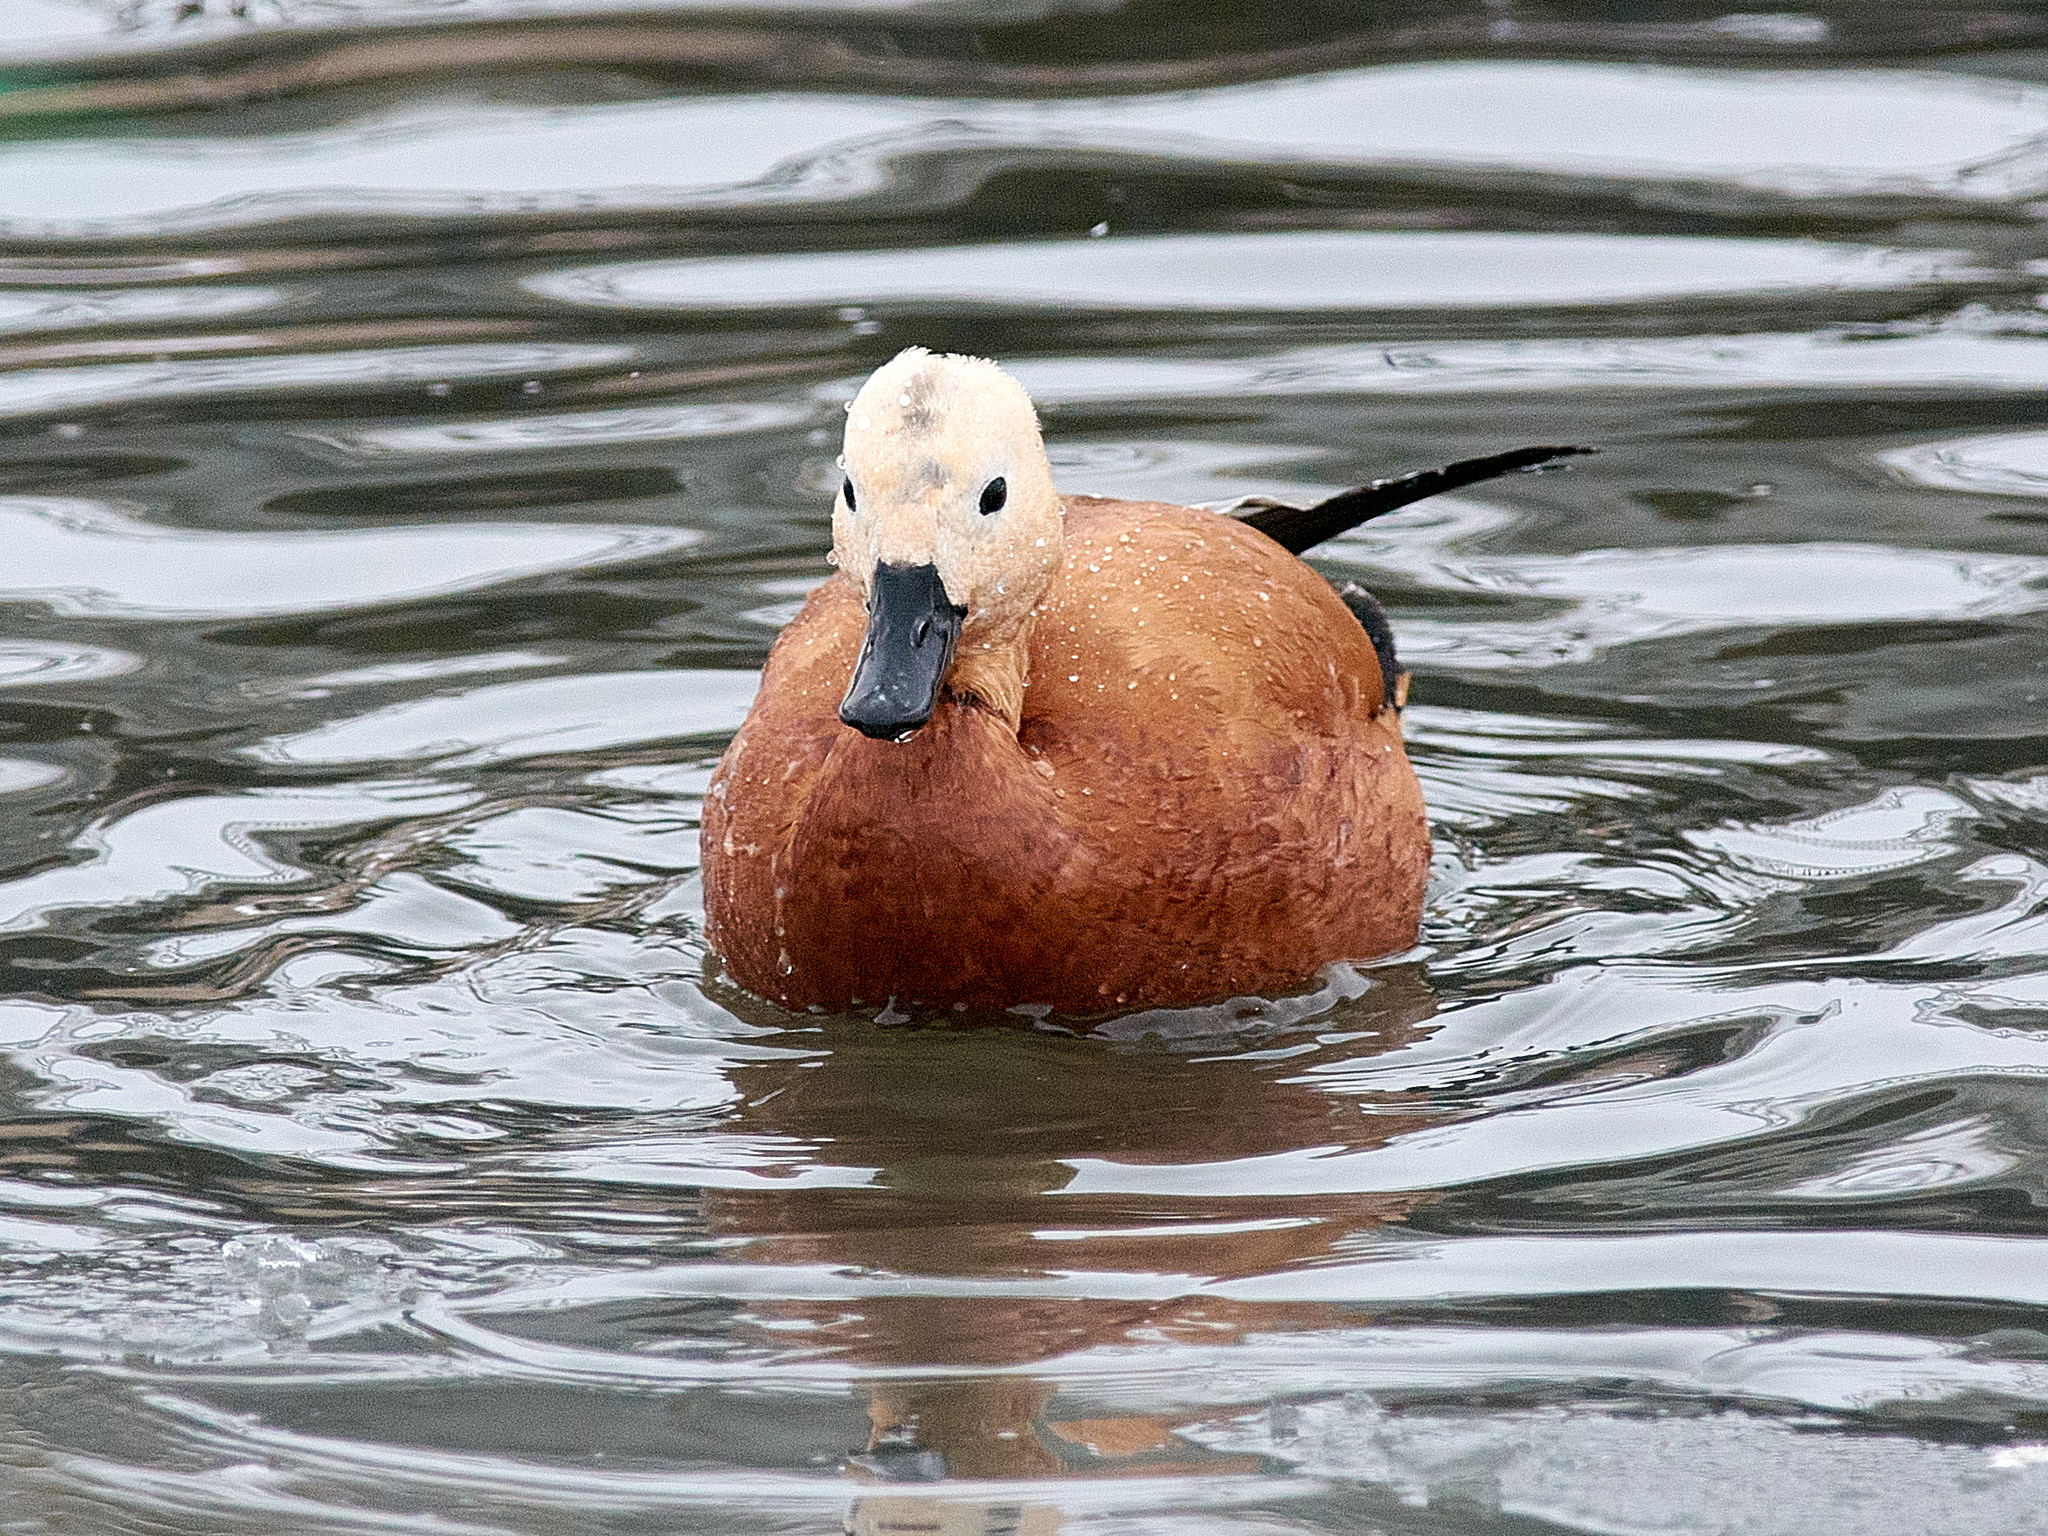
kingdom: Animalia
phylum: Chordata
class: Aves
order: Anseriformes
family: Anatidae
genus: Tadorna
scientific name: Tadorna ferruginea
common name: Ruddy shelduck
